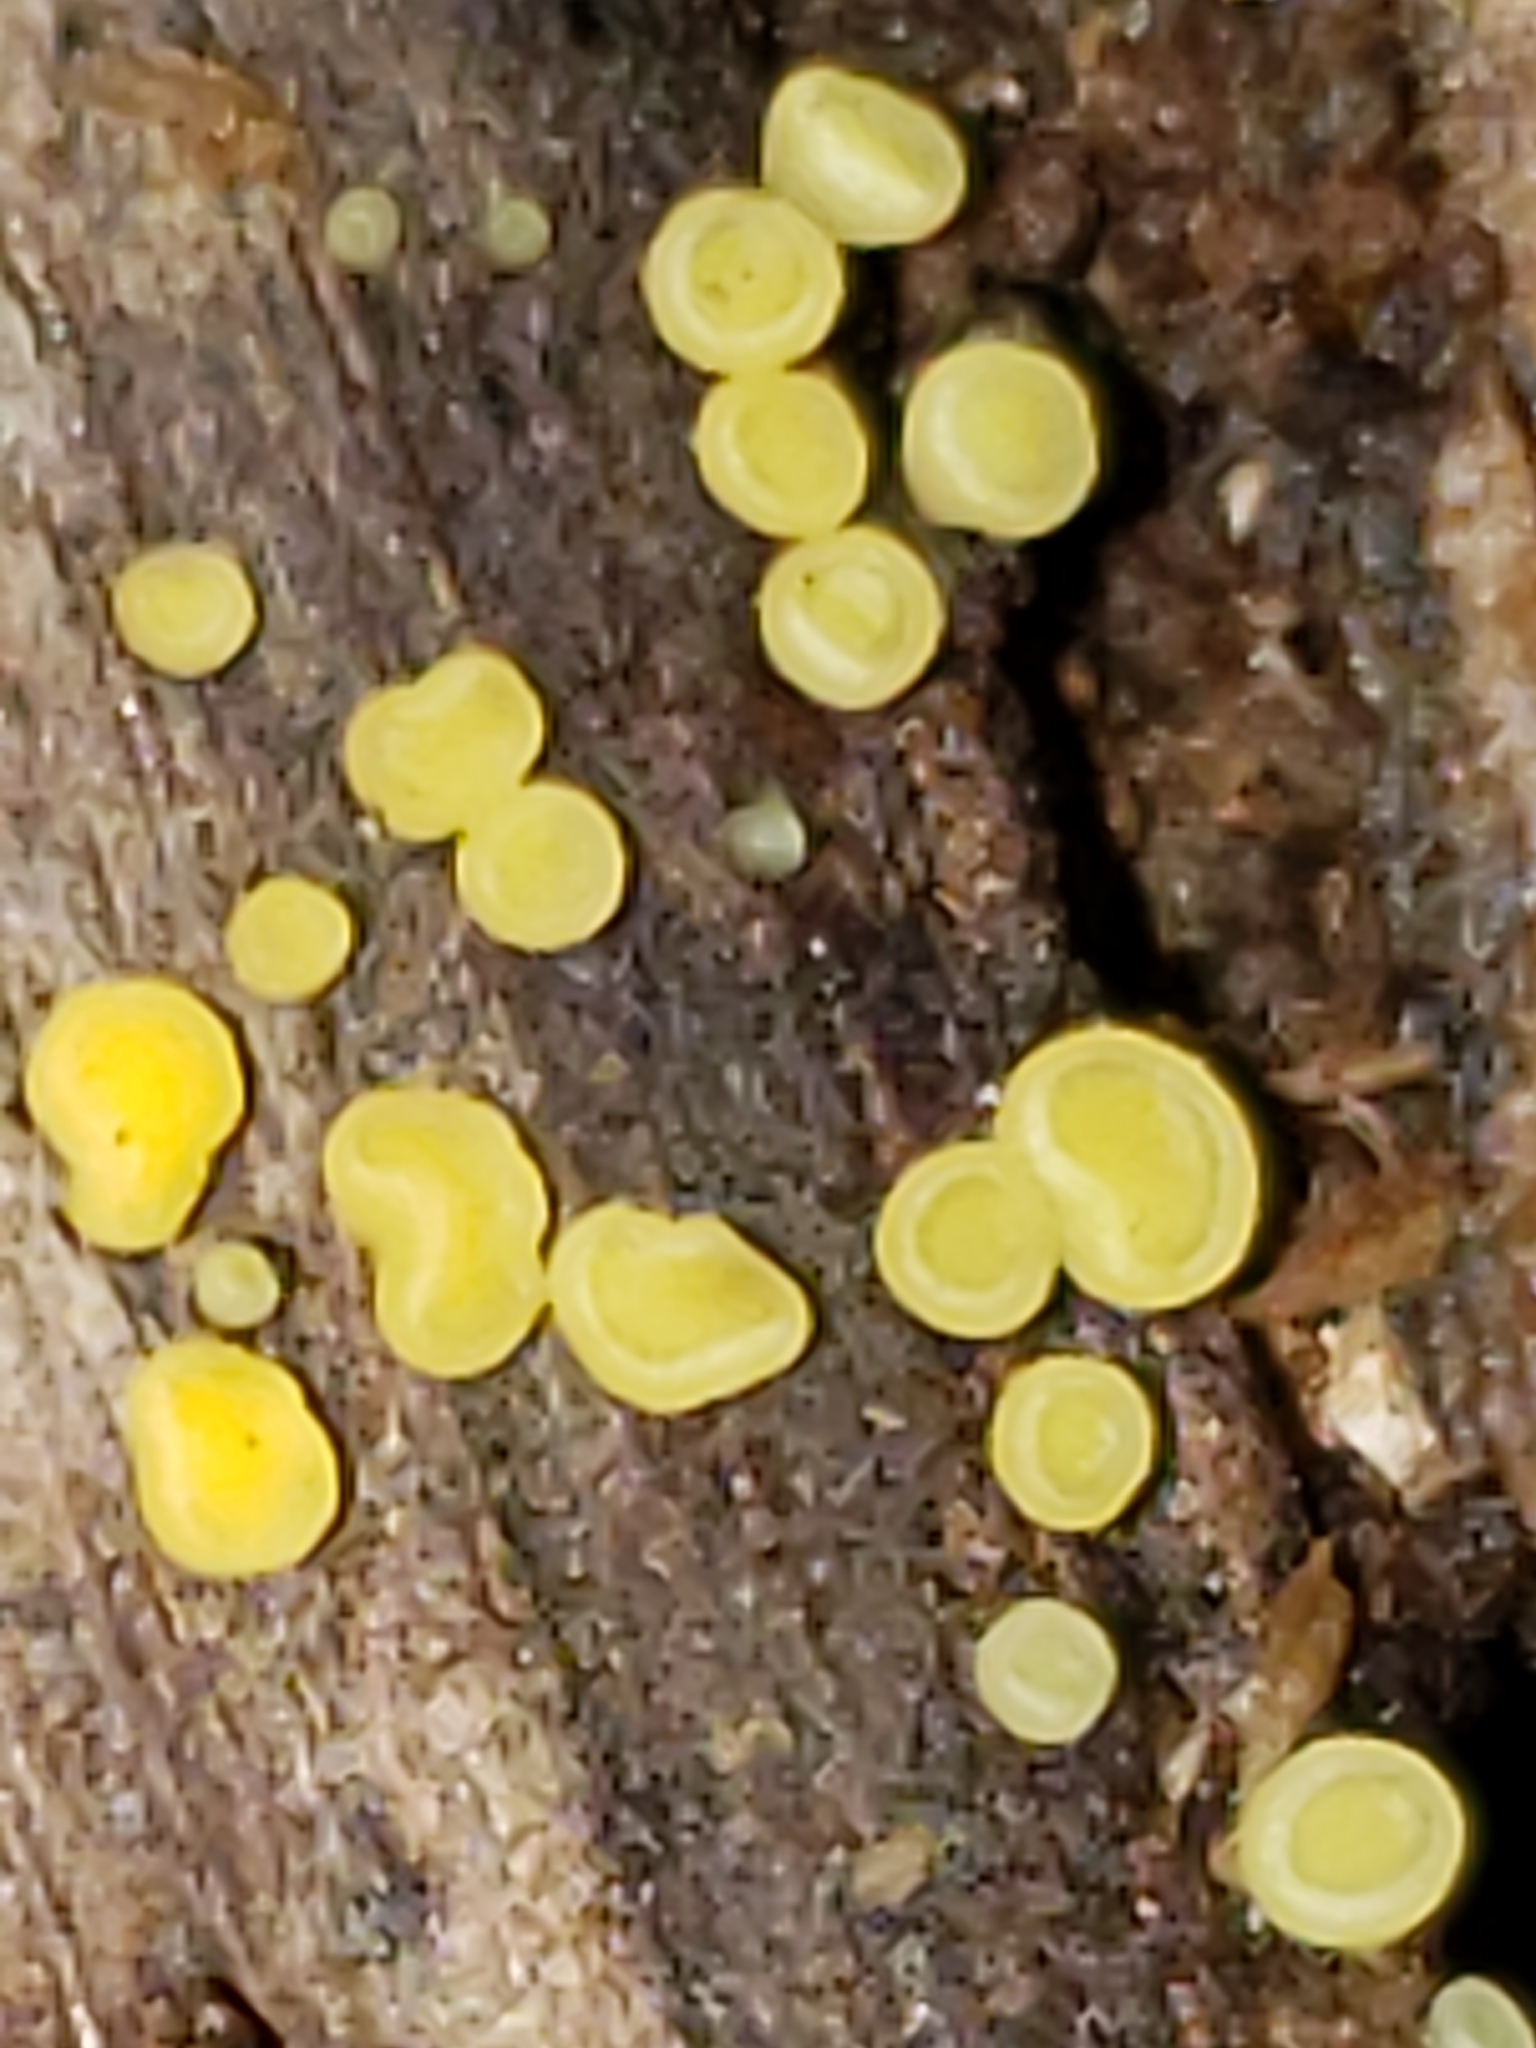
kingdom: Fungi
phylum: Ascomycota
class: Leotiomycetes
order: Helotiales
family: Pezizellaceae
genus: Calycina
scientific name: Calycina citrina
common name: Yellow fairy cups
